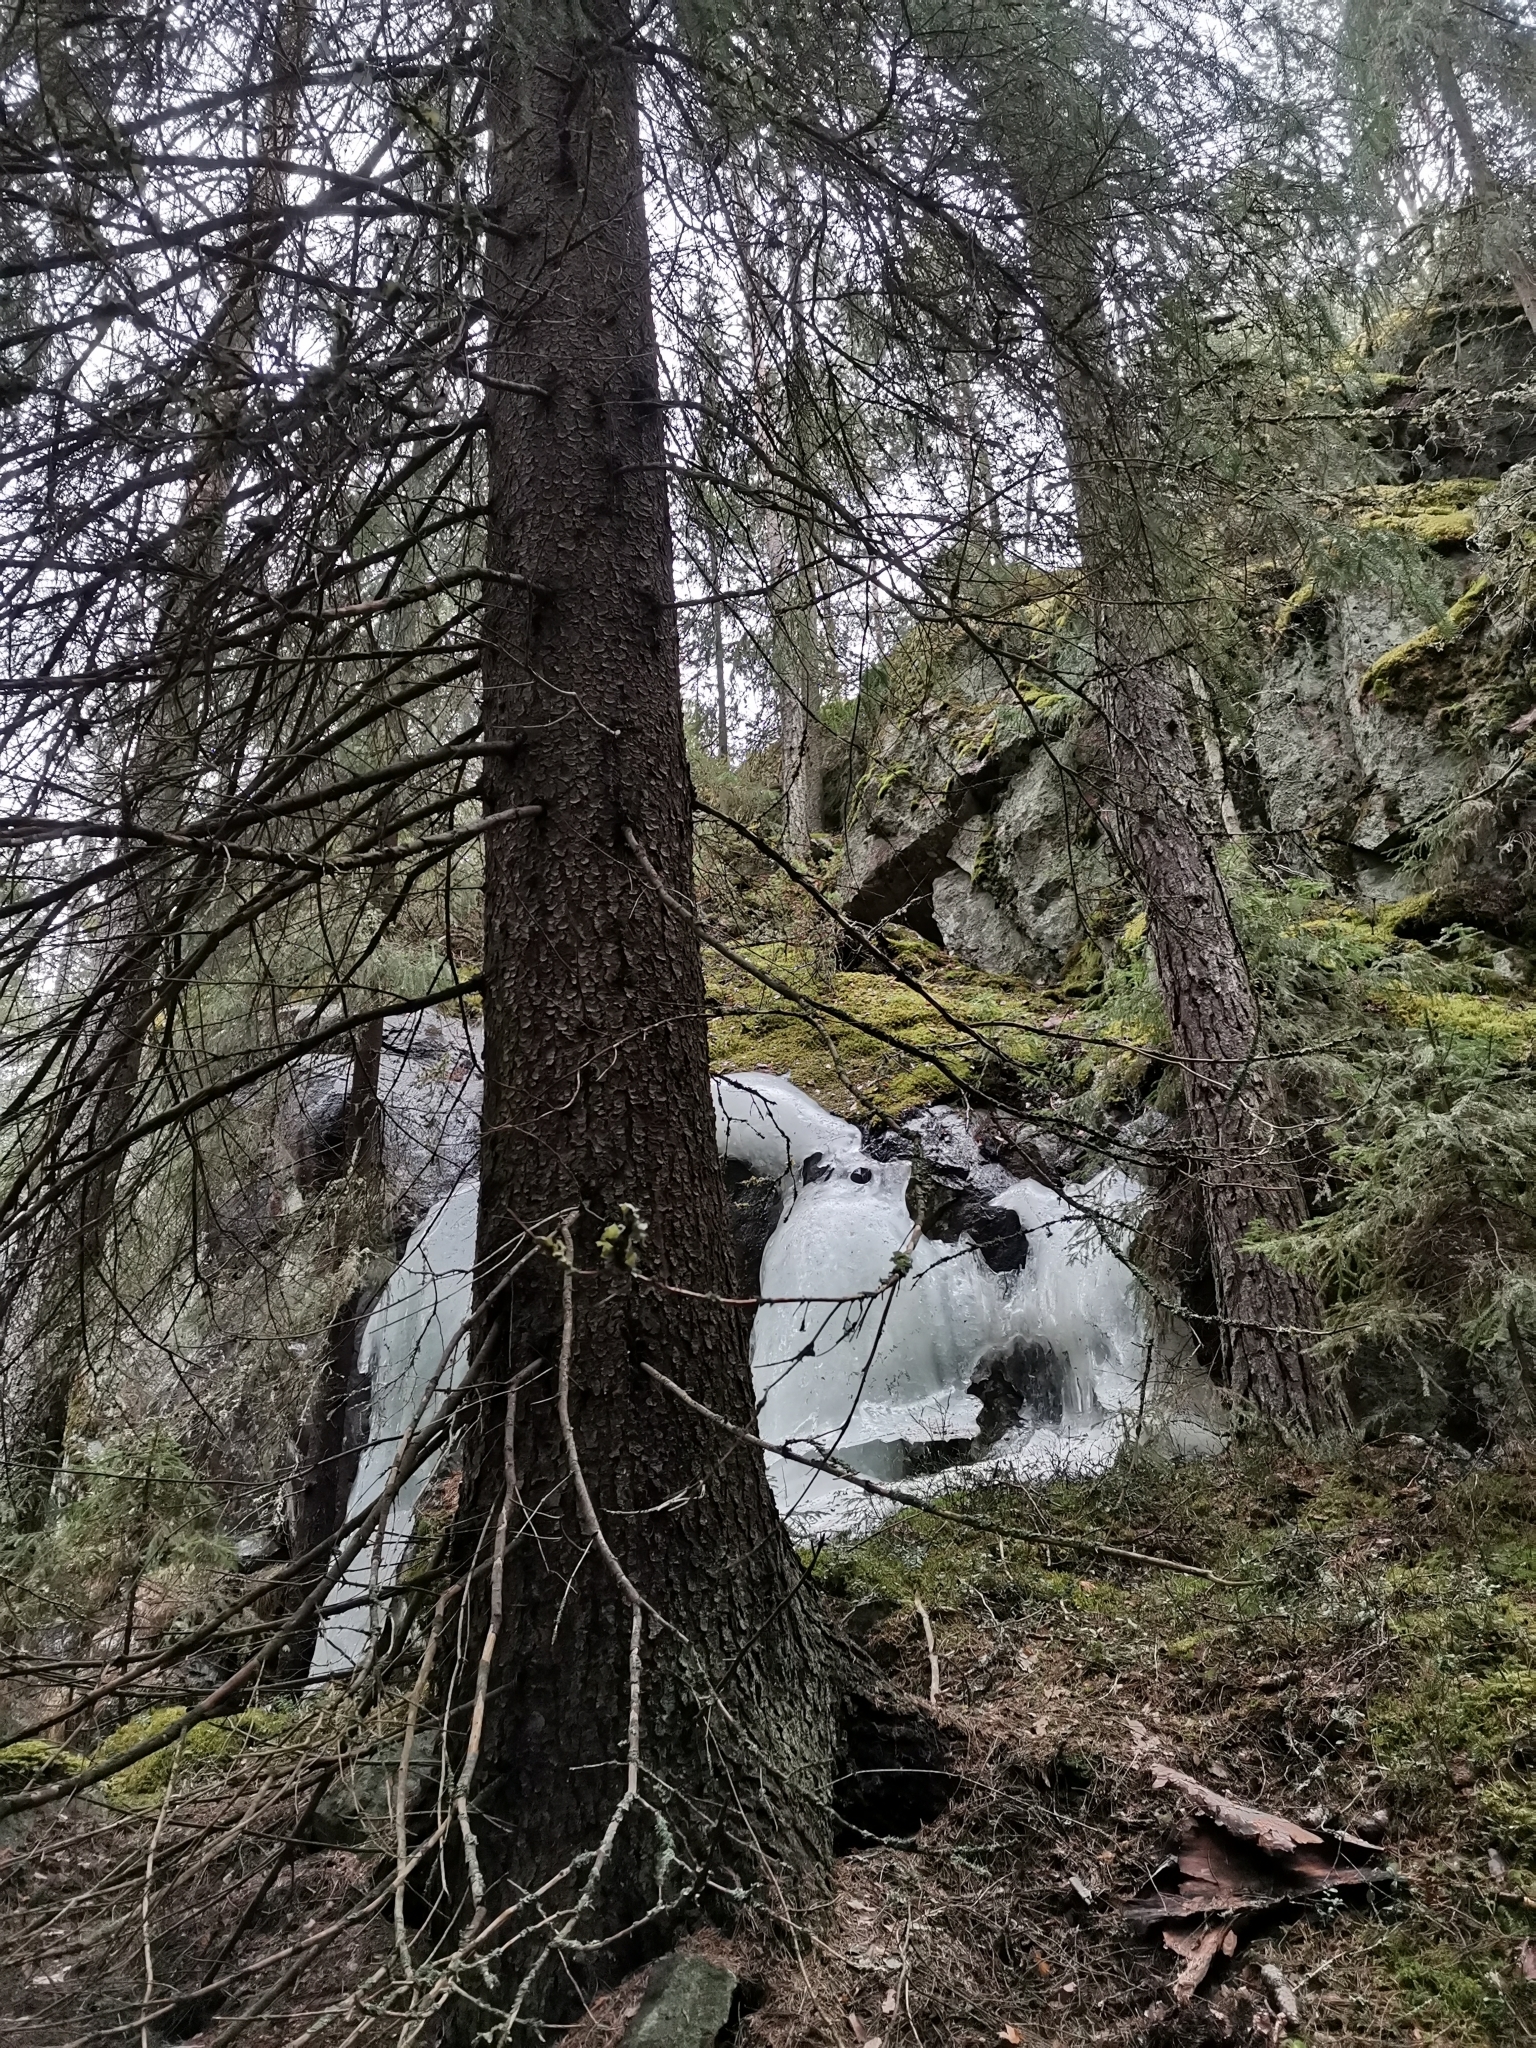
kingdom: Animalia
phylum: Chordata
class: Mammalia
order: Rodentia
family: Sciuridae
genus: Pteromys
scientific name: Pteromys volans
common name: Siberian flying squirrel
